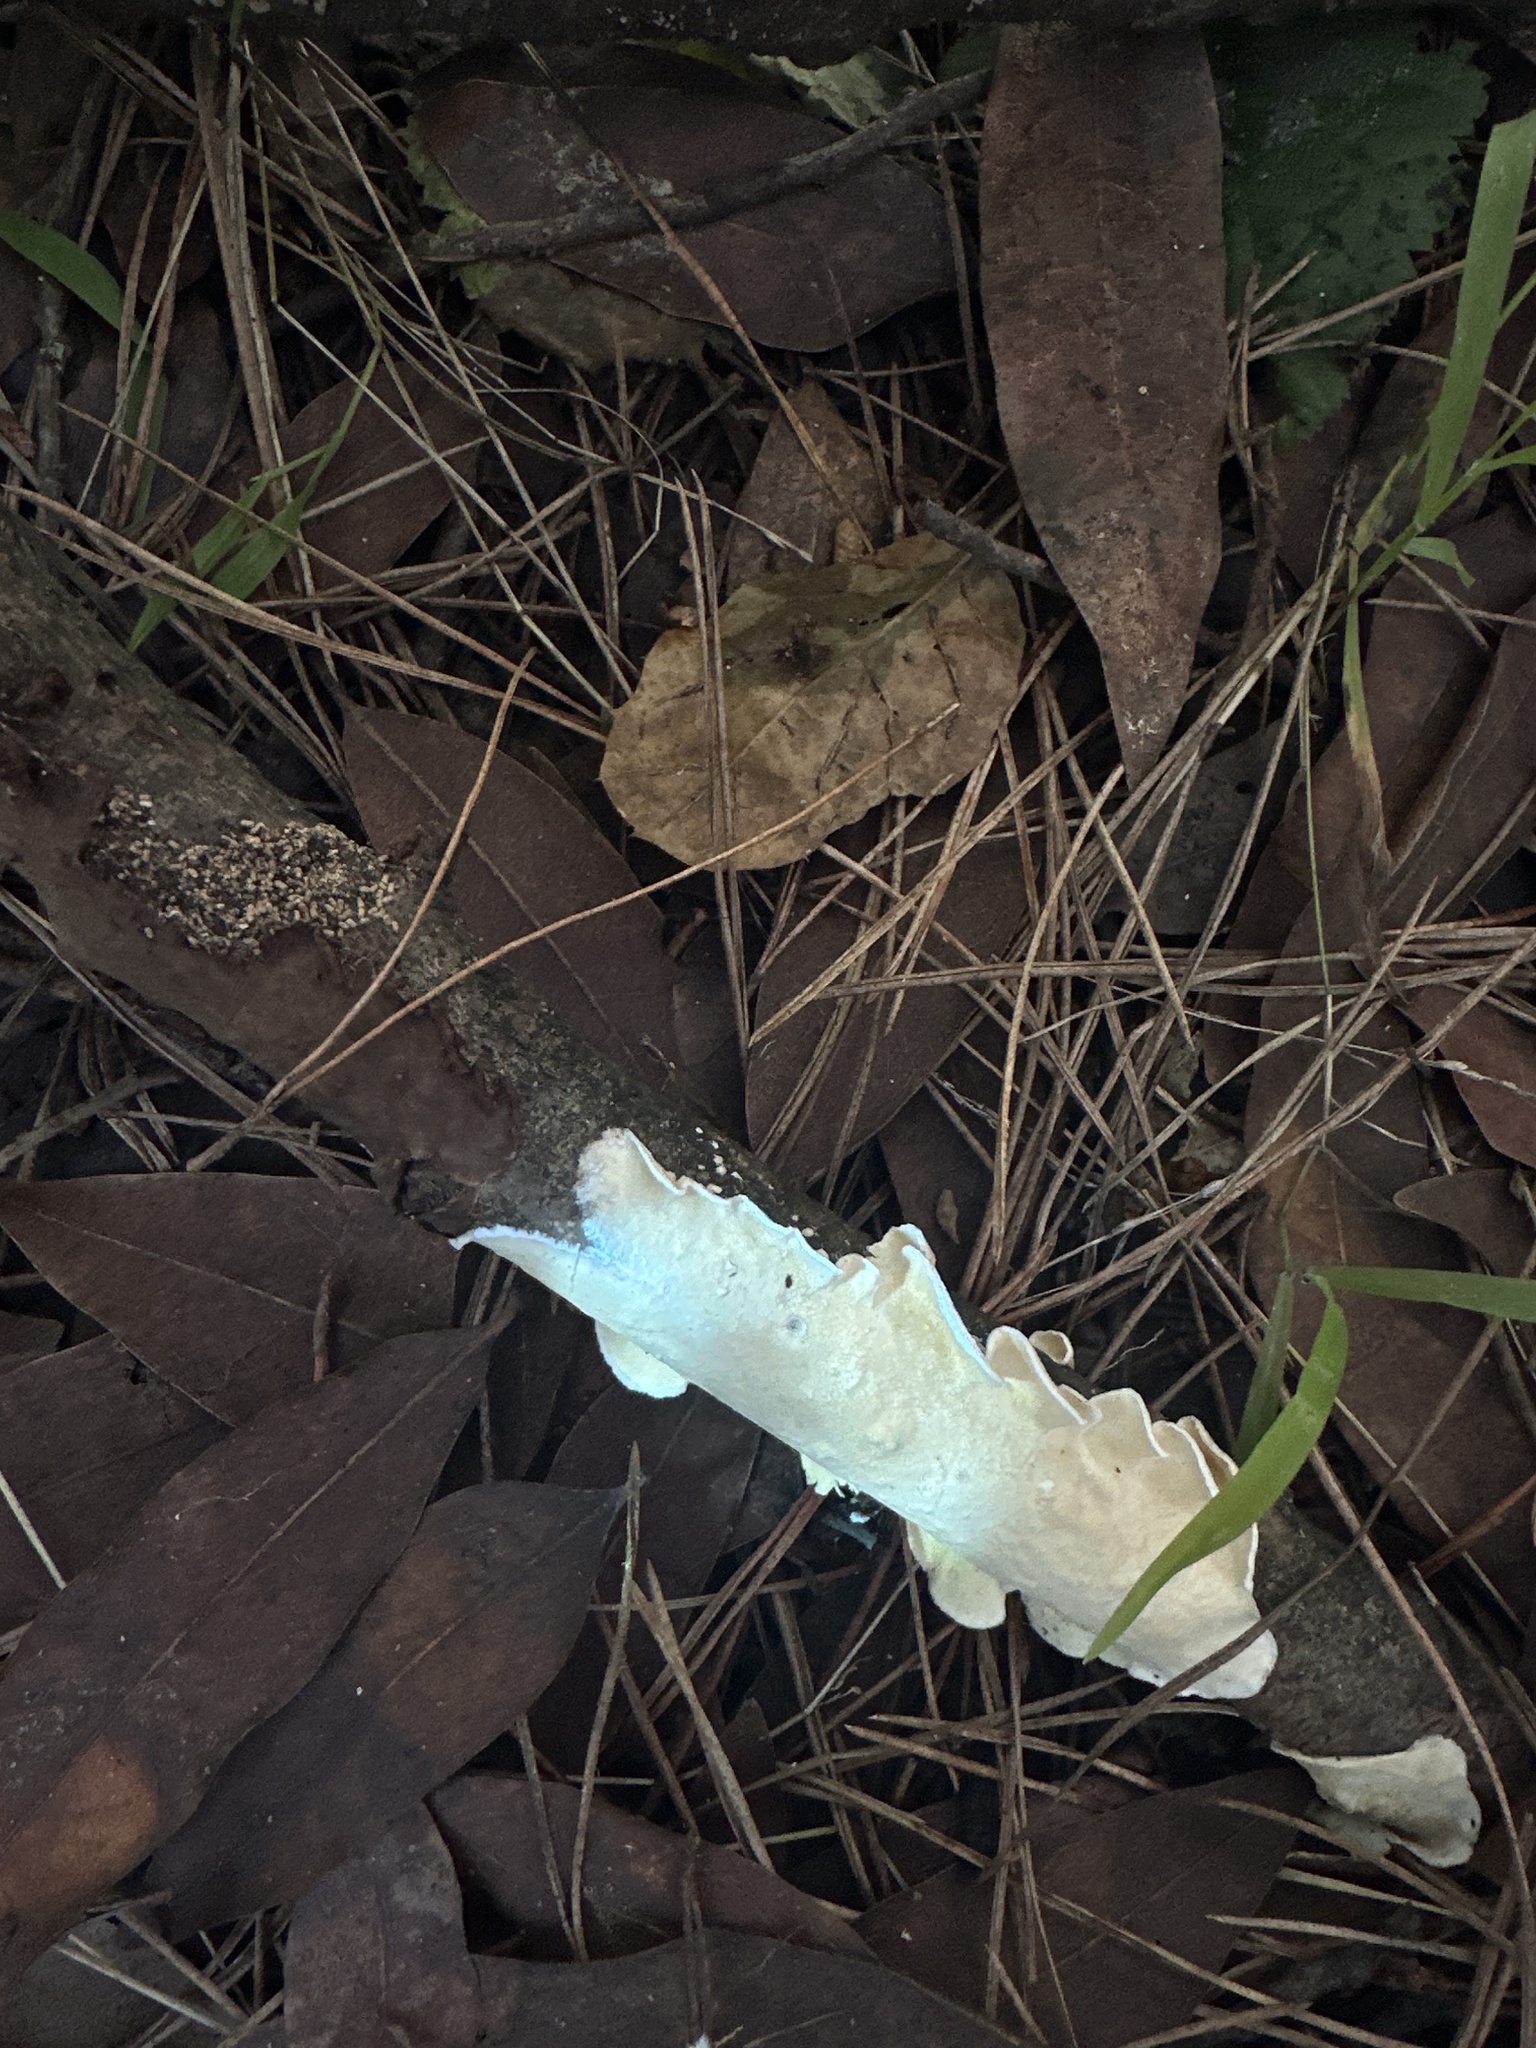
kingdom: Fungi
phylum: Basidiomycota
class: Agaricomycetes
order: Polyporales
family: Irpicaceae
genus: Byssomerulius
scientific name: Byssomerulius corium
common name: Netted crust
